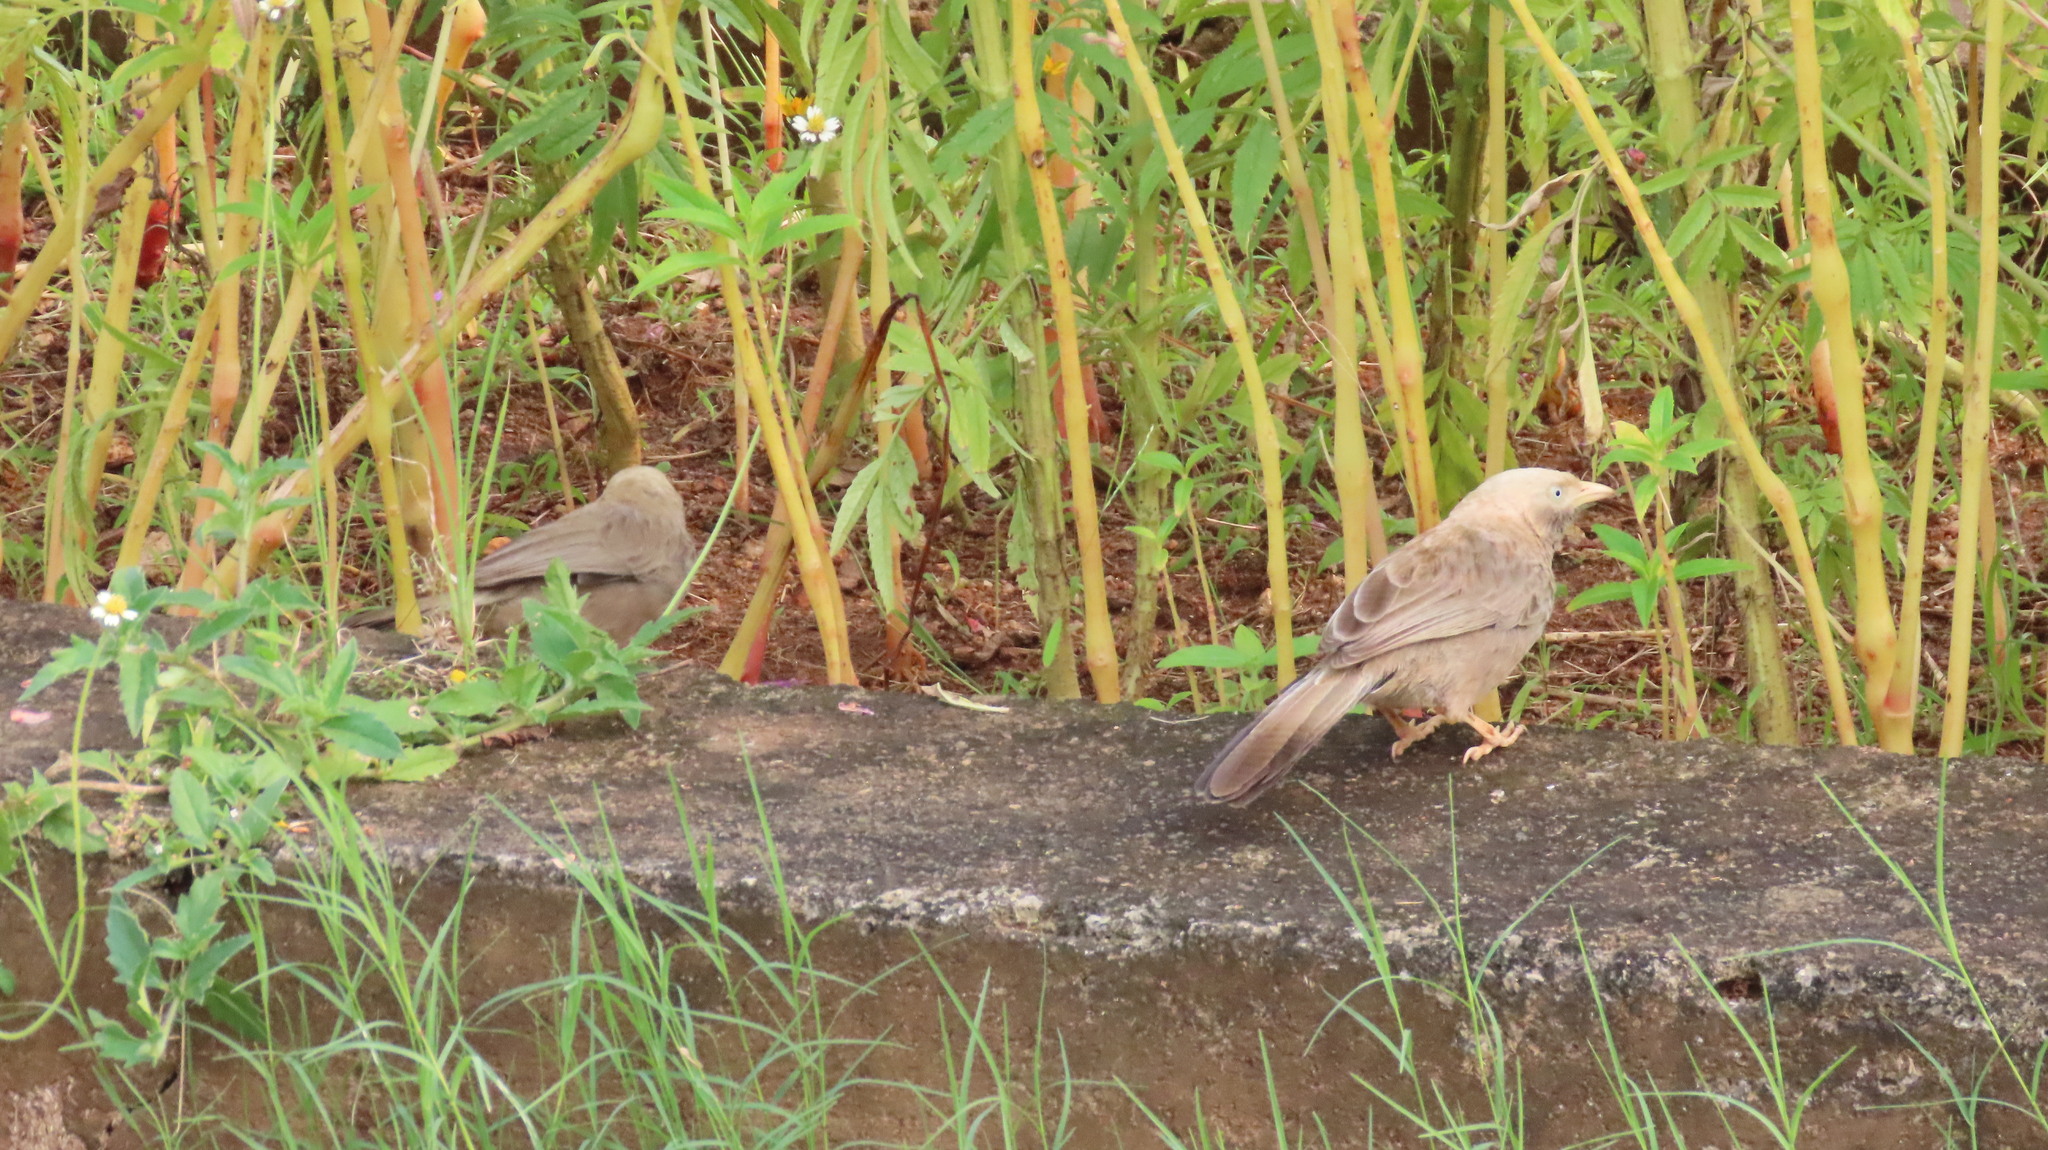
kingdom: Animalia
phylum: Chordata
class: Aves
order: Passeriformes
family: Leiothrichidae
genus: Turdoides
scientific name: Turdoides affinis
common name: Yellow-billed babbler
